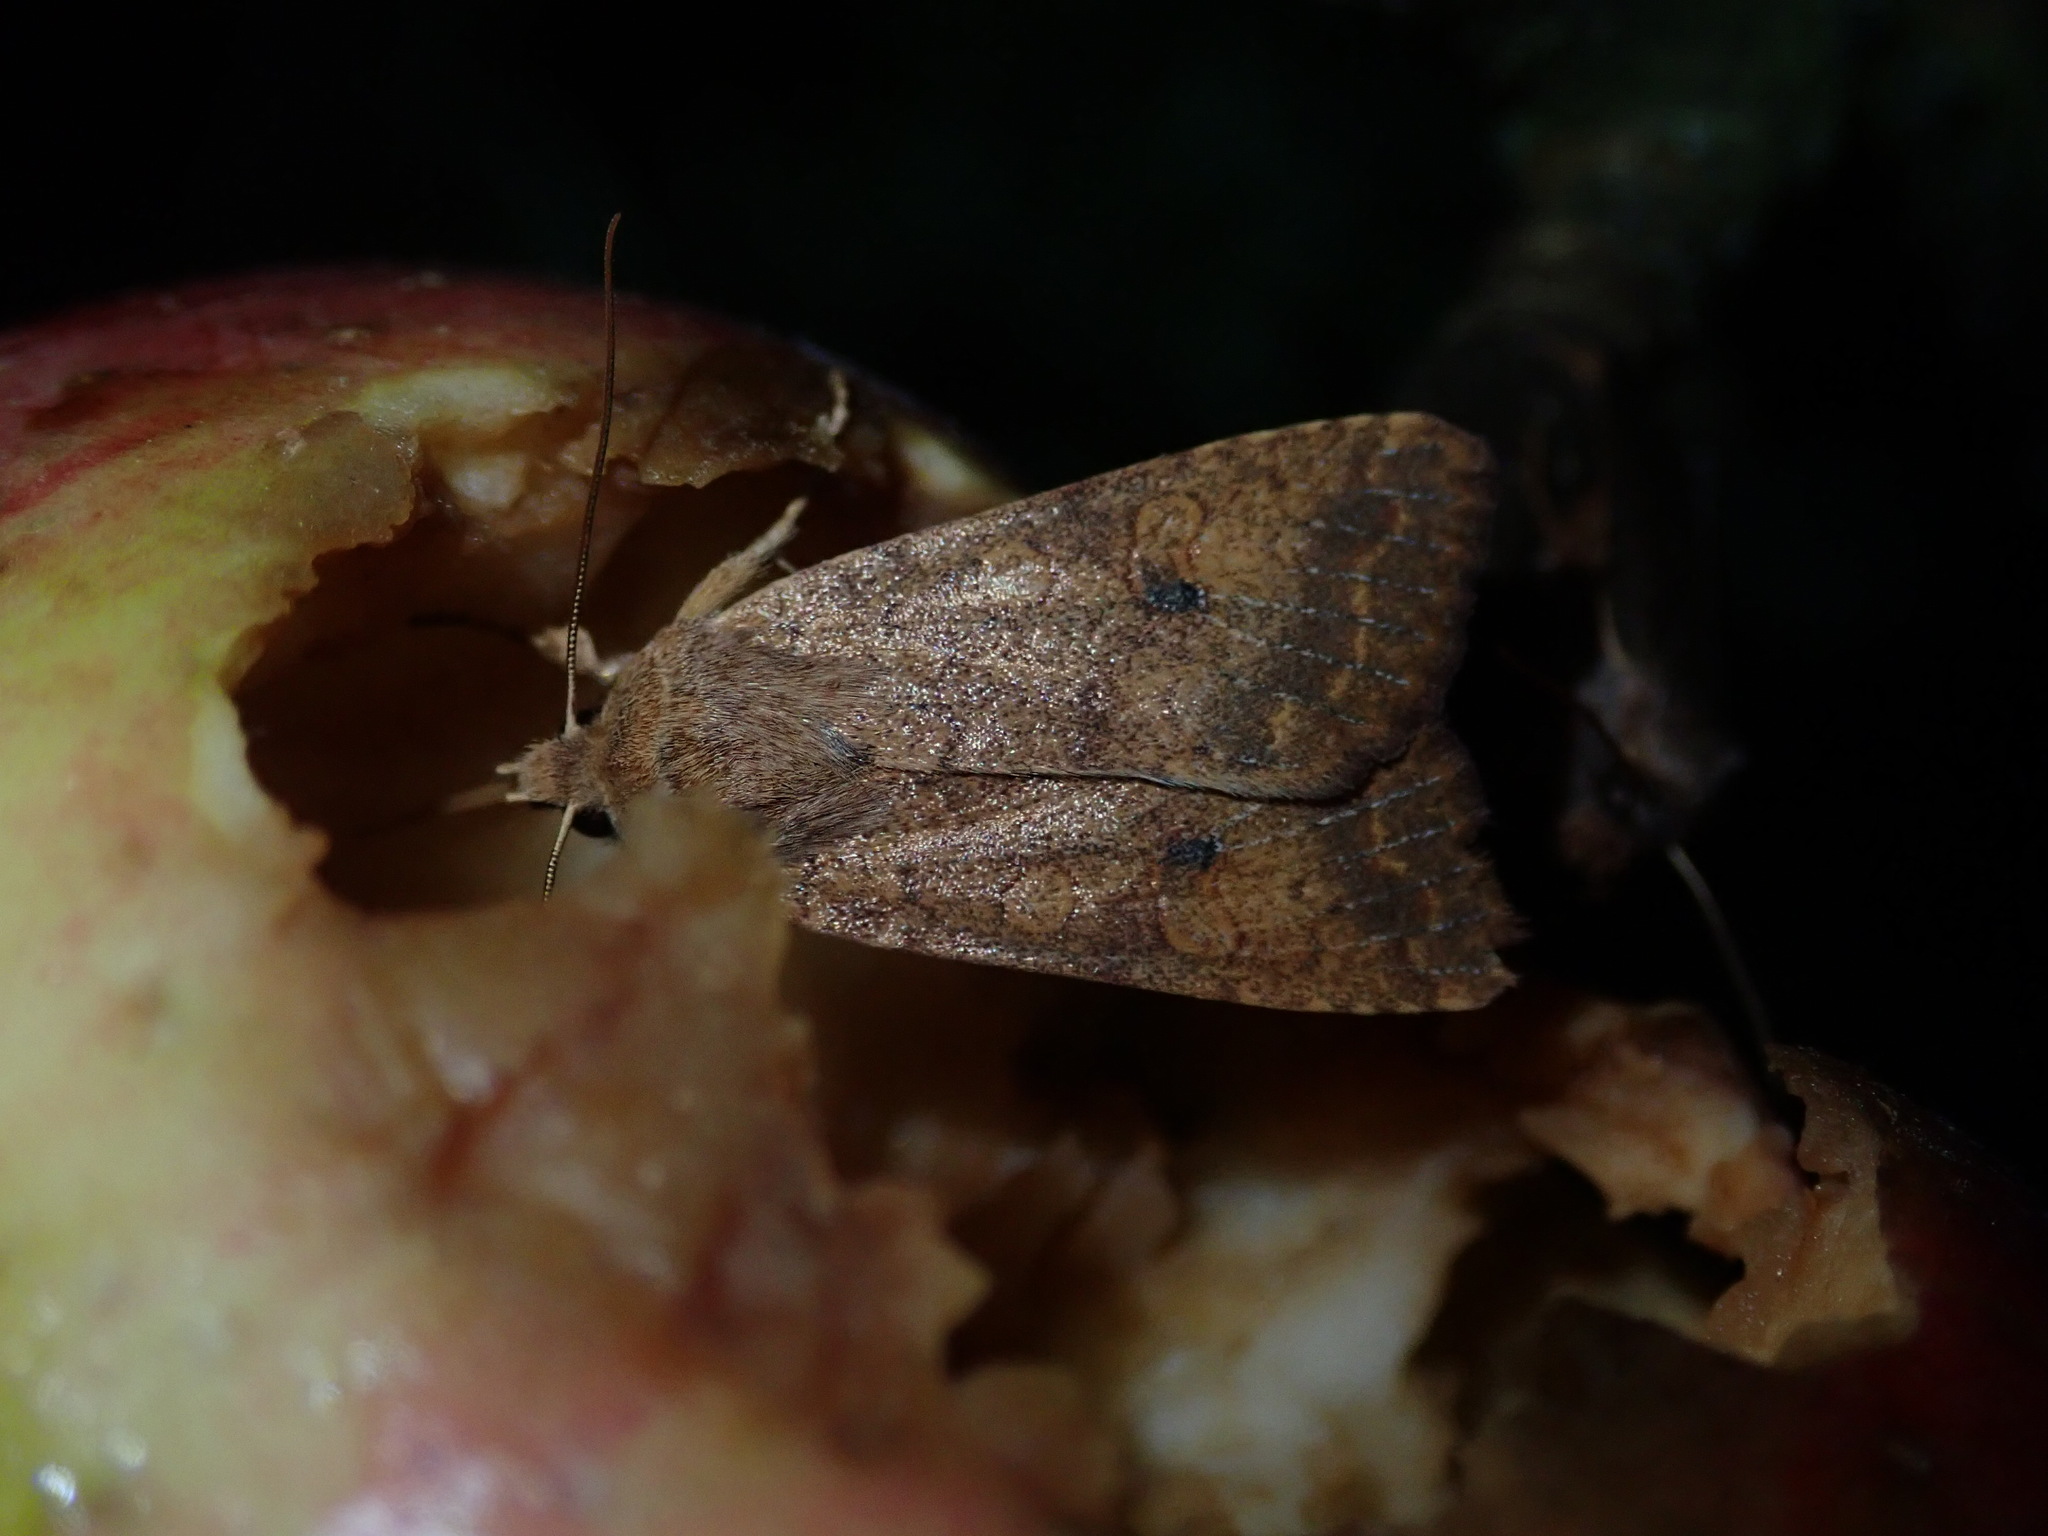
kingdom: Animalia
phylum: Arthropoda
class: Insecta
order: Lepidoptera
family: Noctuidae
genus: Sunira
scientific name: Sunira circellaris
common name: Brick
